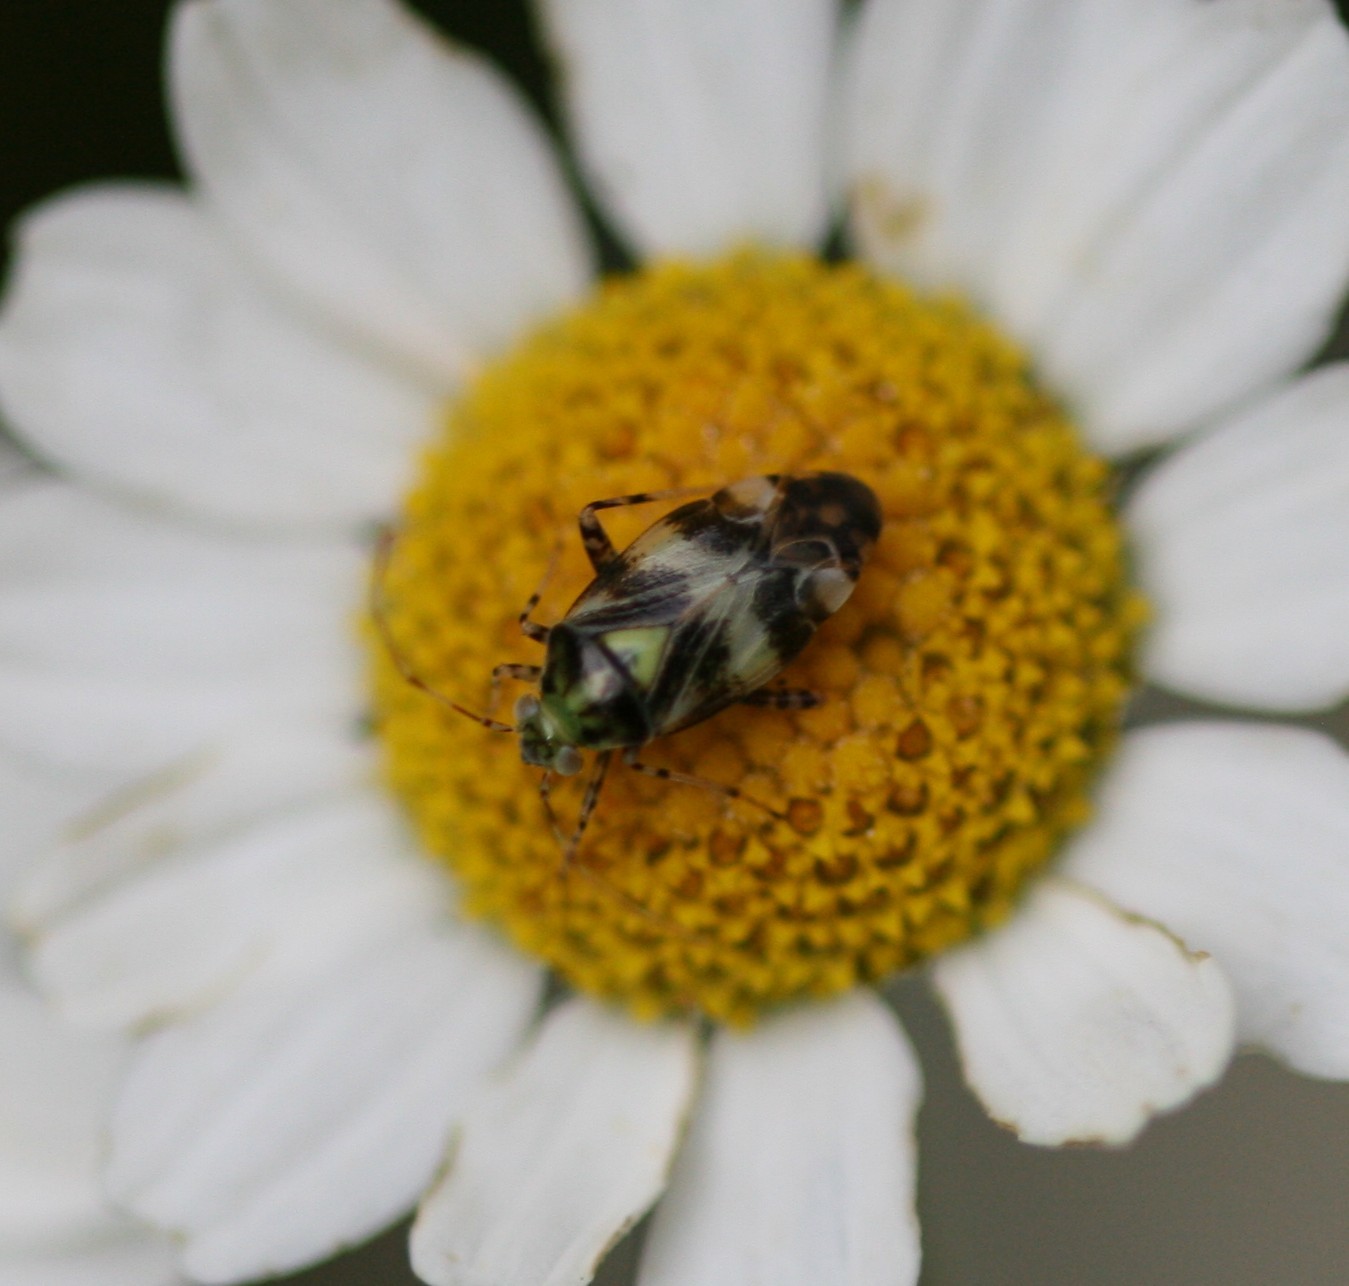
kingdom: Animalia
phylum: Arthropoda
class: Insecta
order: Hemiptera
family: Miridae
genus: Liocoris
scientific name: Liocoris tripustulatus
